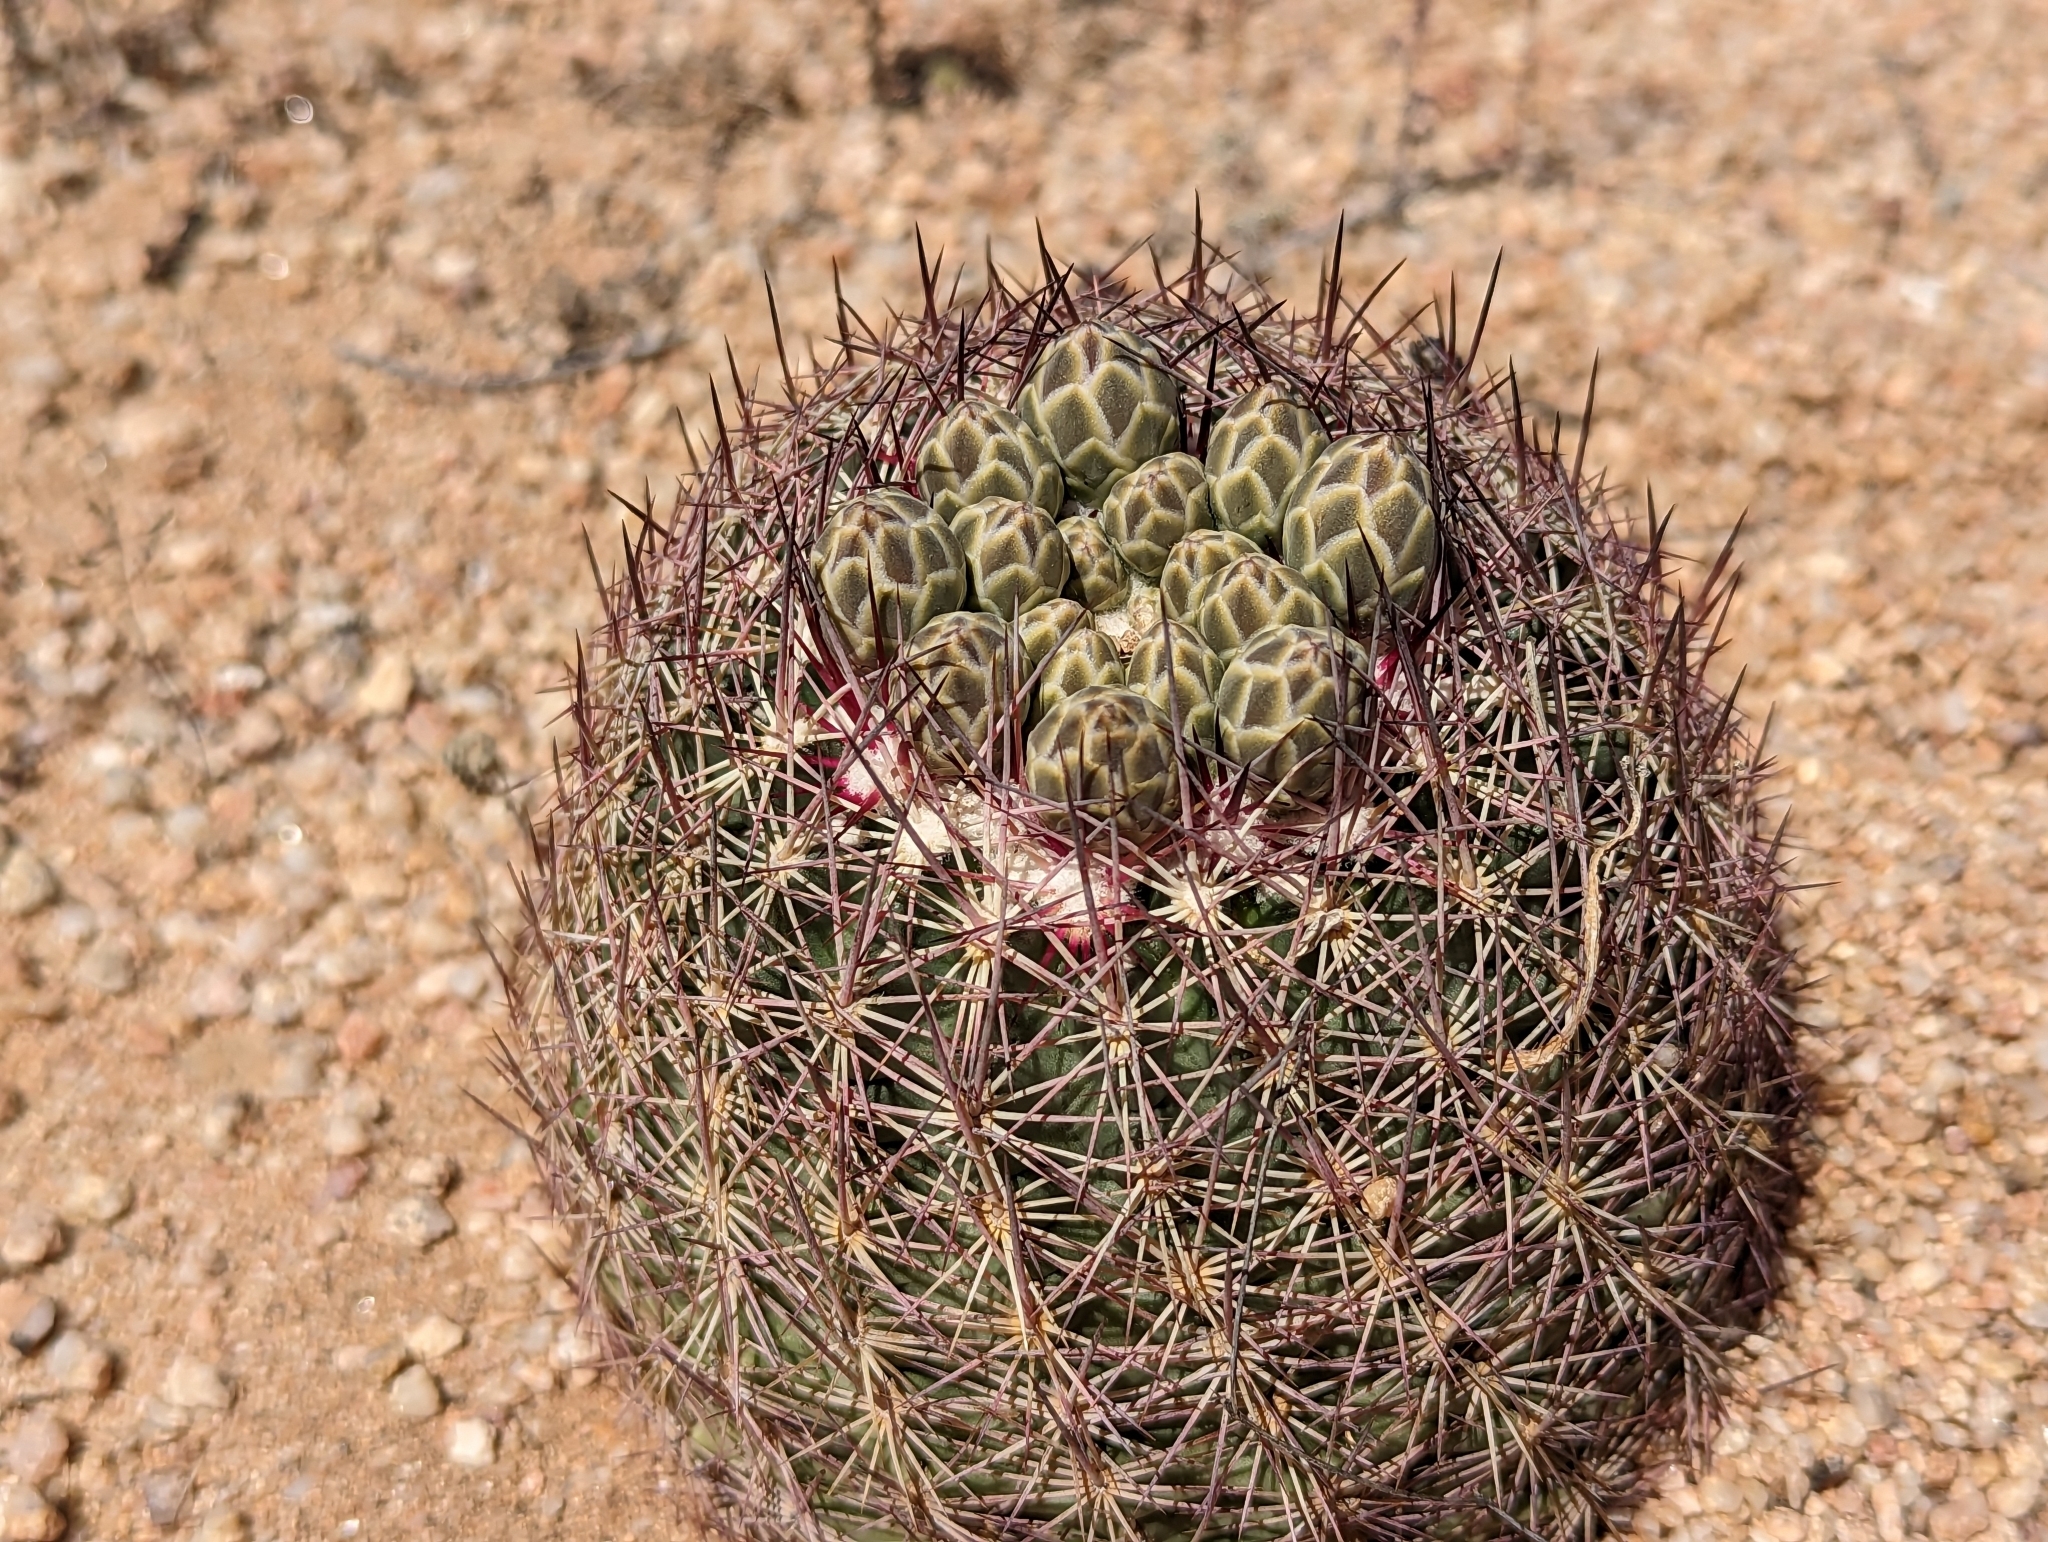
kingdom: Plantae
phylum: Tracheophyta
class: Magnoliopsida
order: Caryophyllales
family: Cactaceae
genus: Sclerocactus
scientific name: Sclerocactus johnsonii
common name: Eight-spine fishhook cactus
